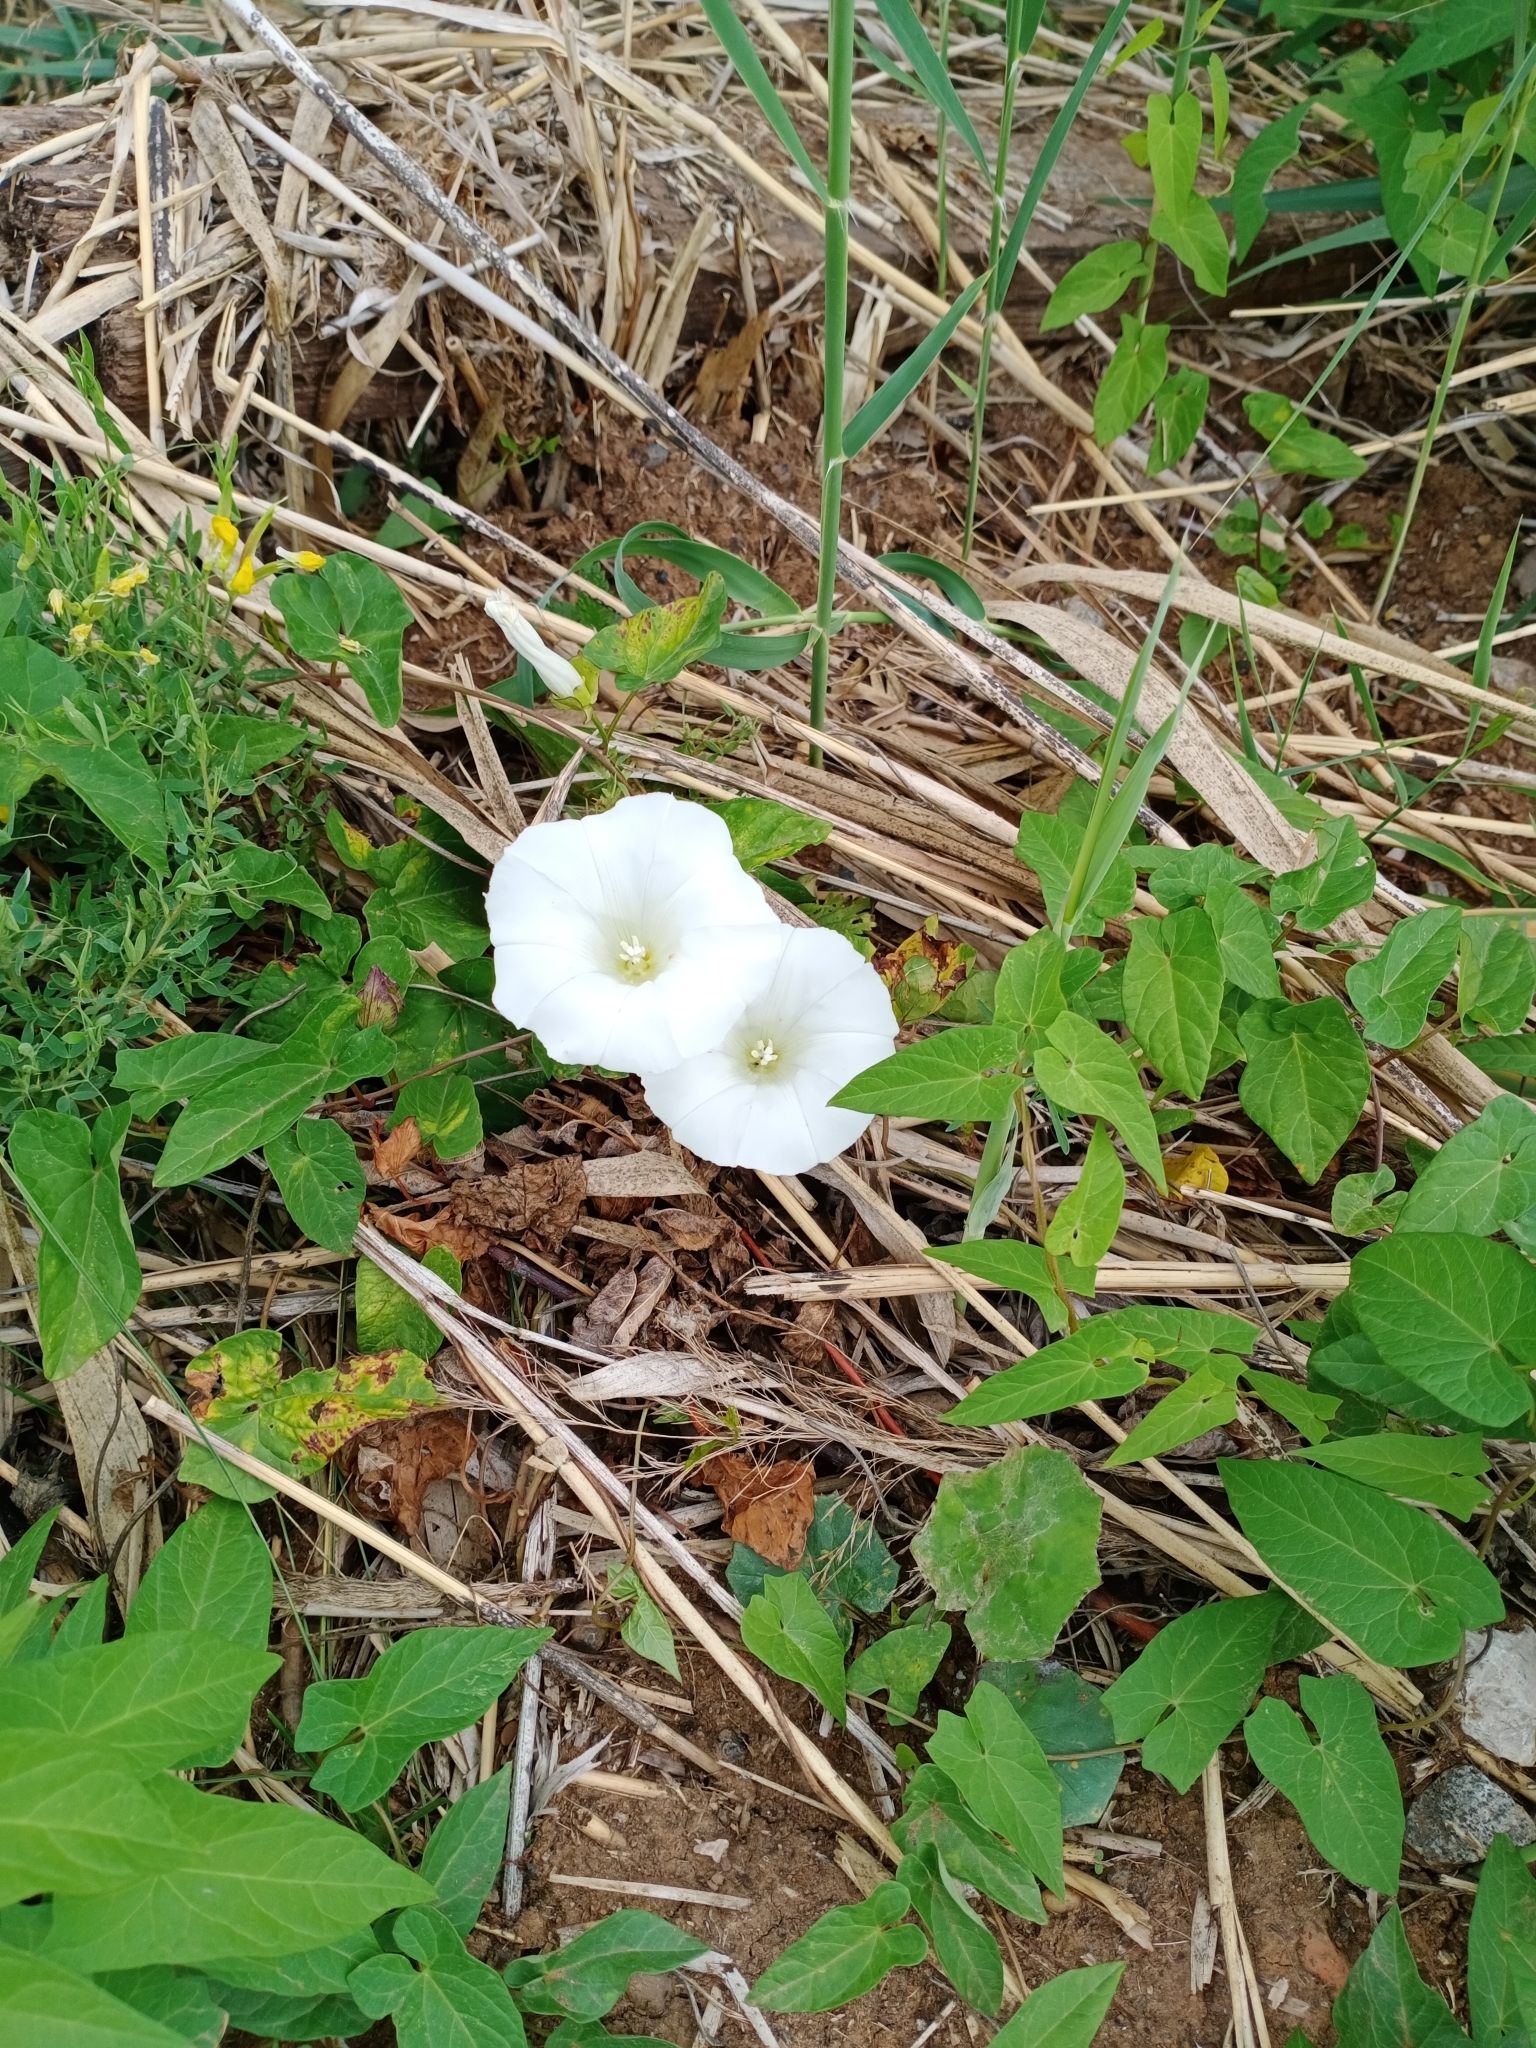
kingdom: Plantae
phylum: Tracheophyta
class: Magnoliopsida
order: Solanales
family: Convolvulaceae
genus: Calystegia
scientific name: Calystegia sepium
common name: Hedge bindweed
